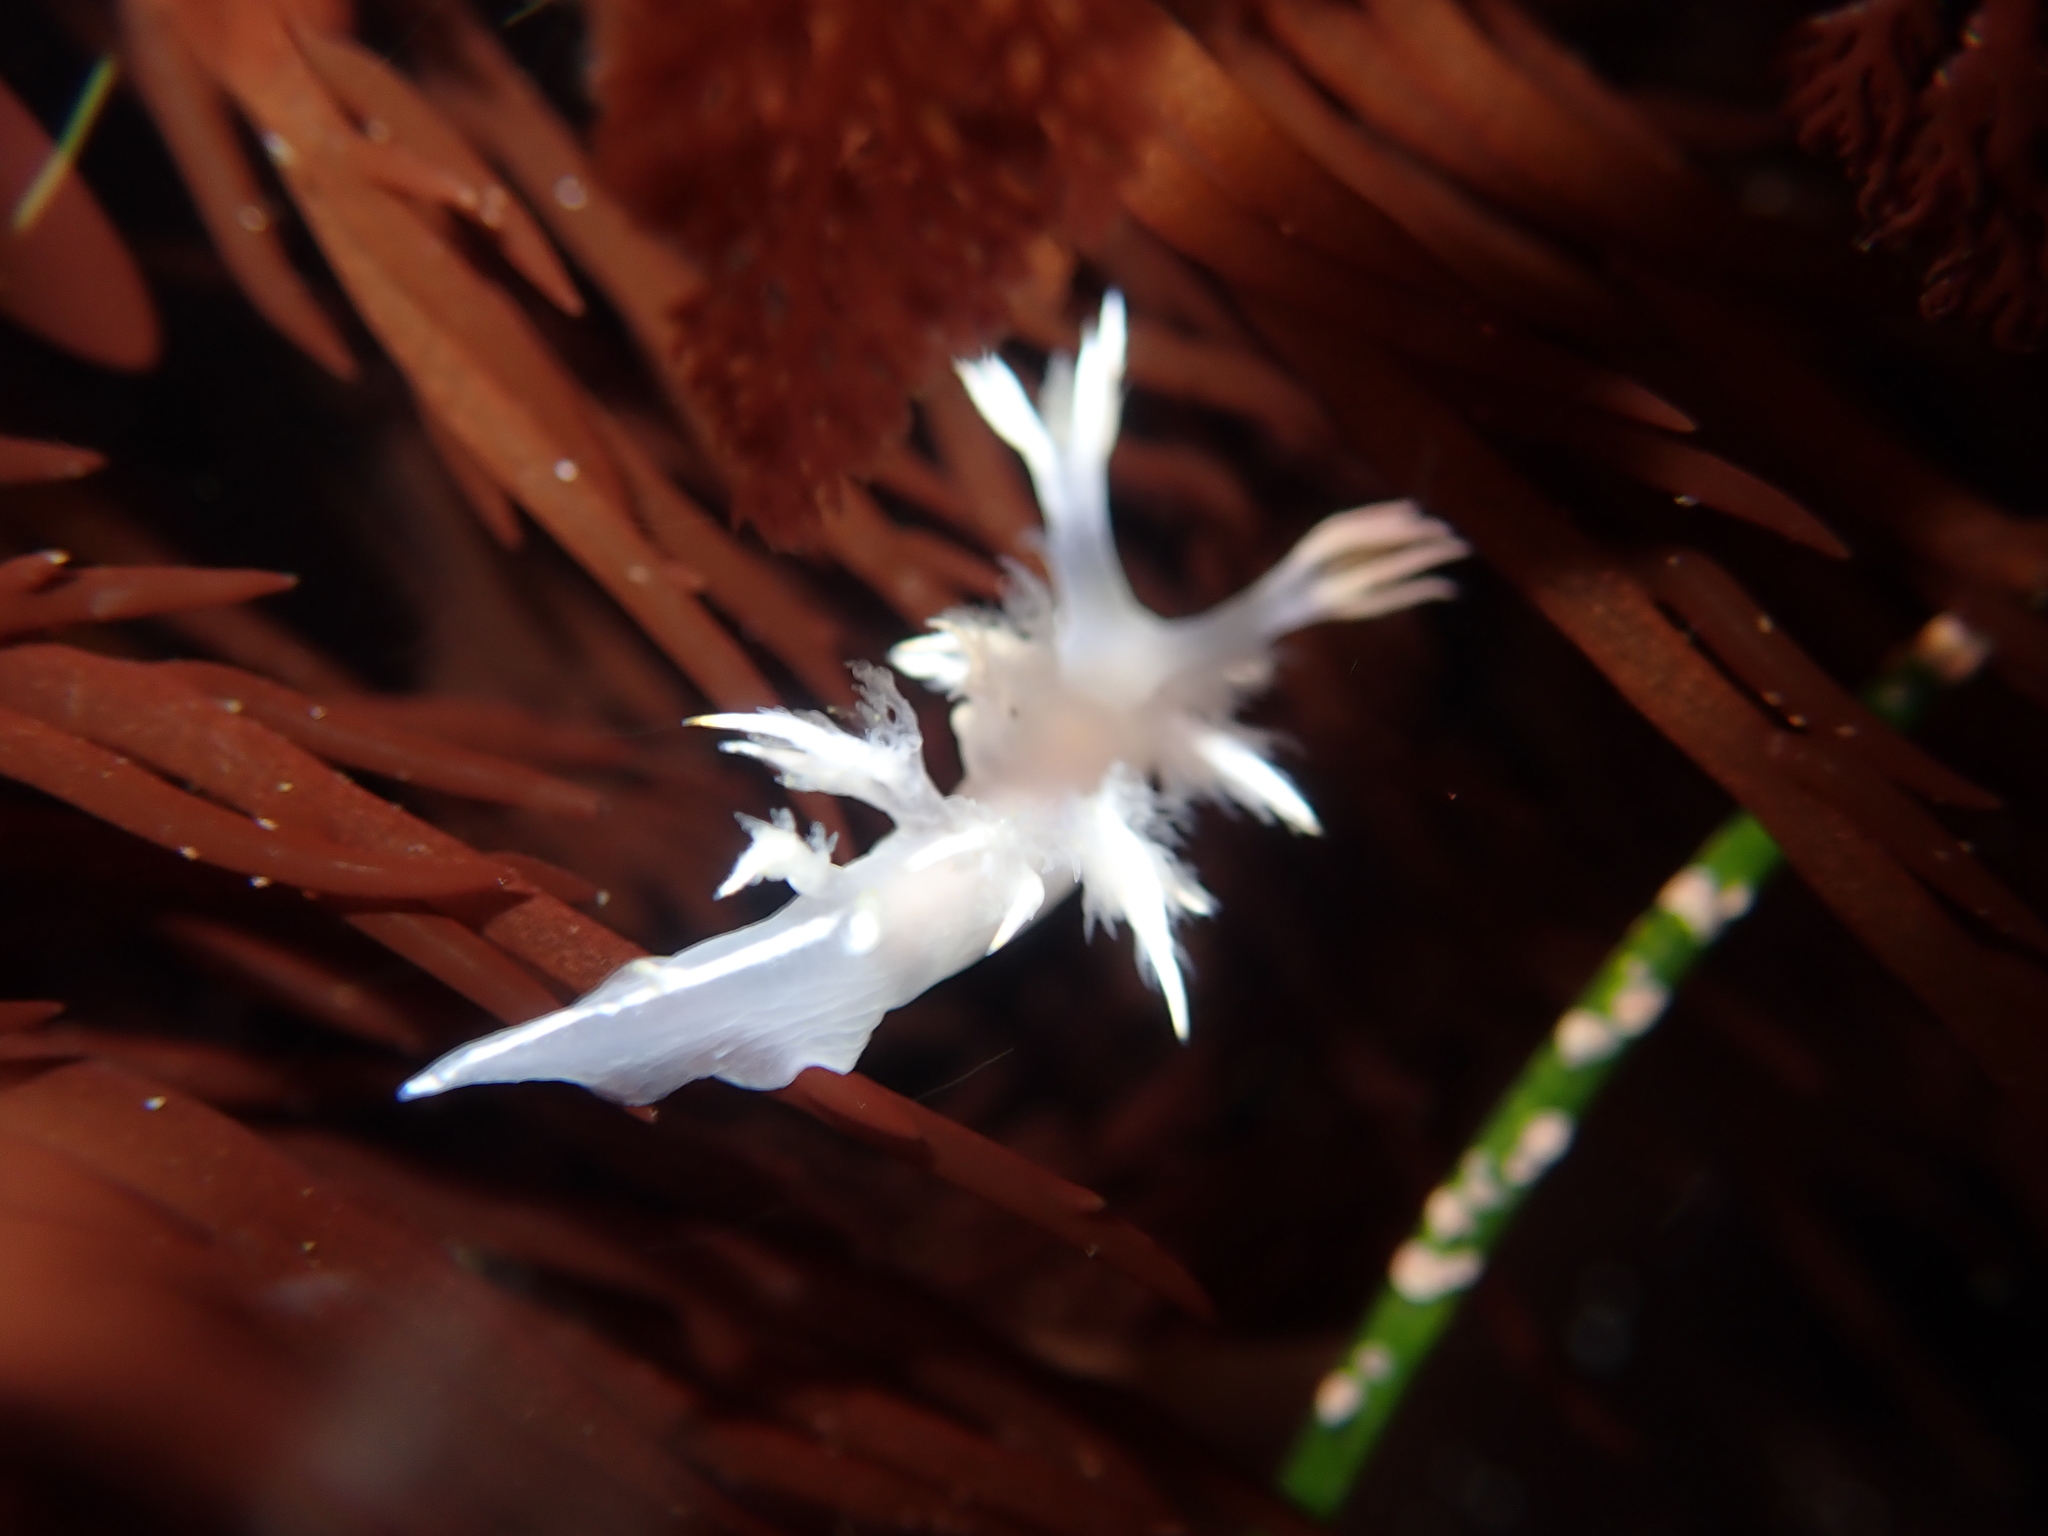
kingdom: Animalia
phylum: Mollusca
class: Gastropoda
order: Nudibranchia
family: Dendronotidae
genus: Dendronotus
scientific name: Dendronotus albus
